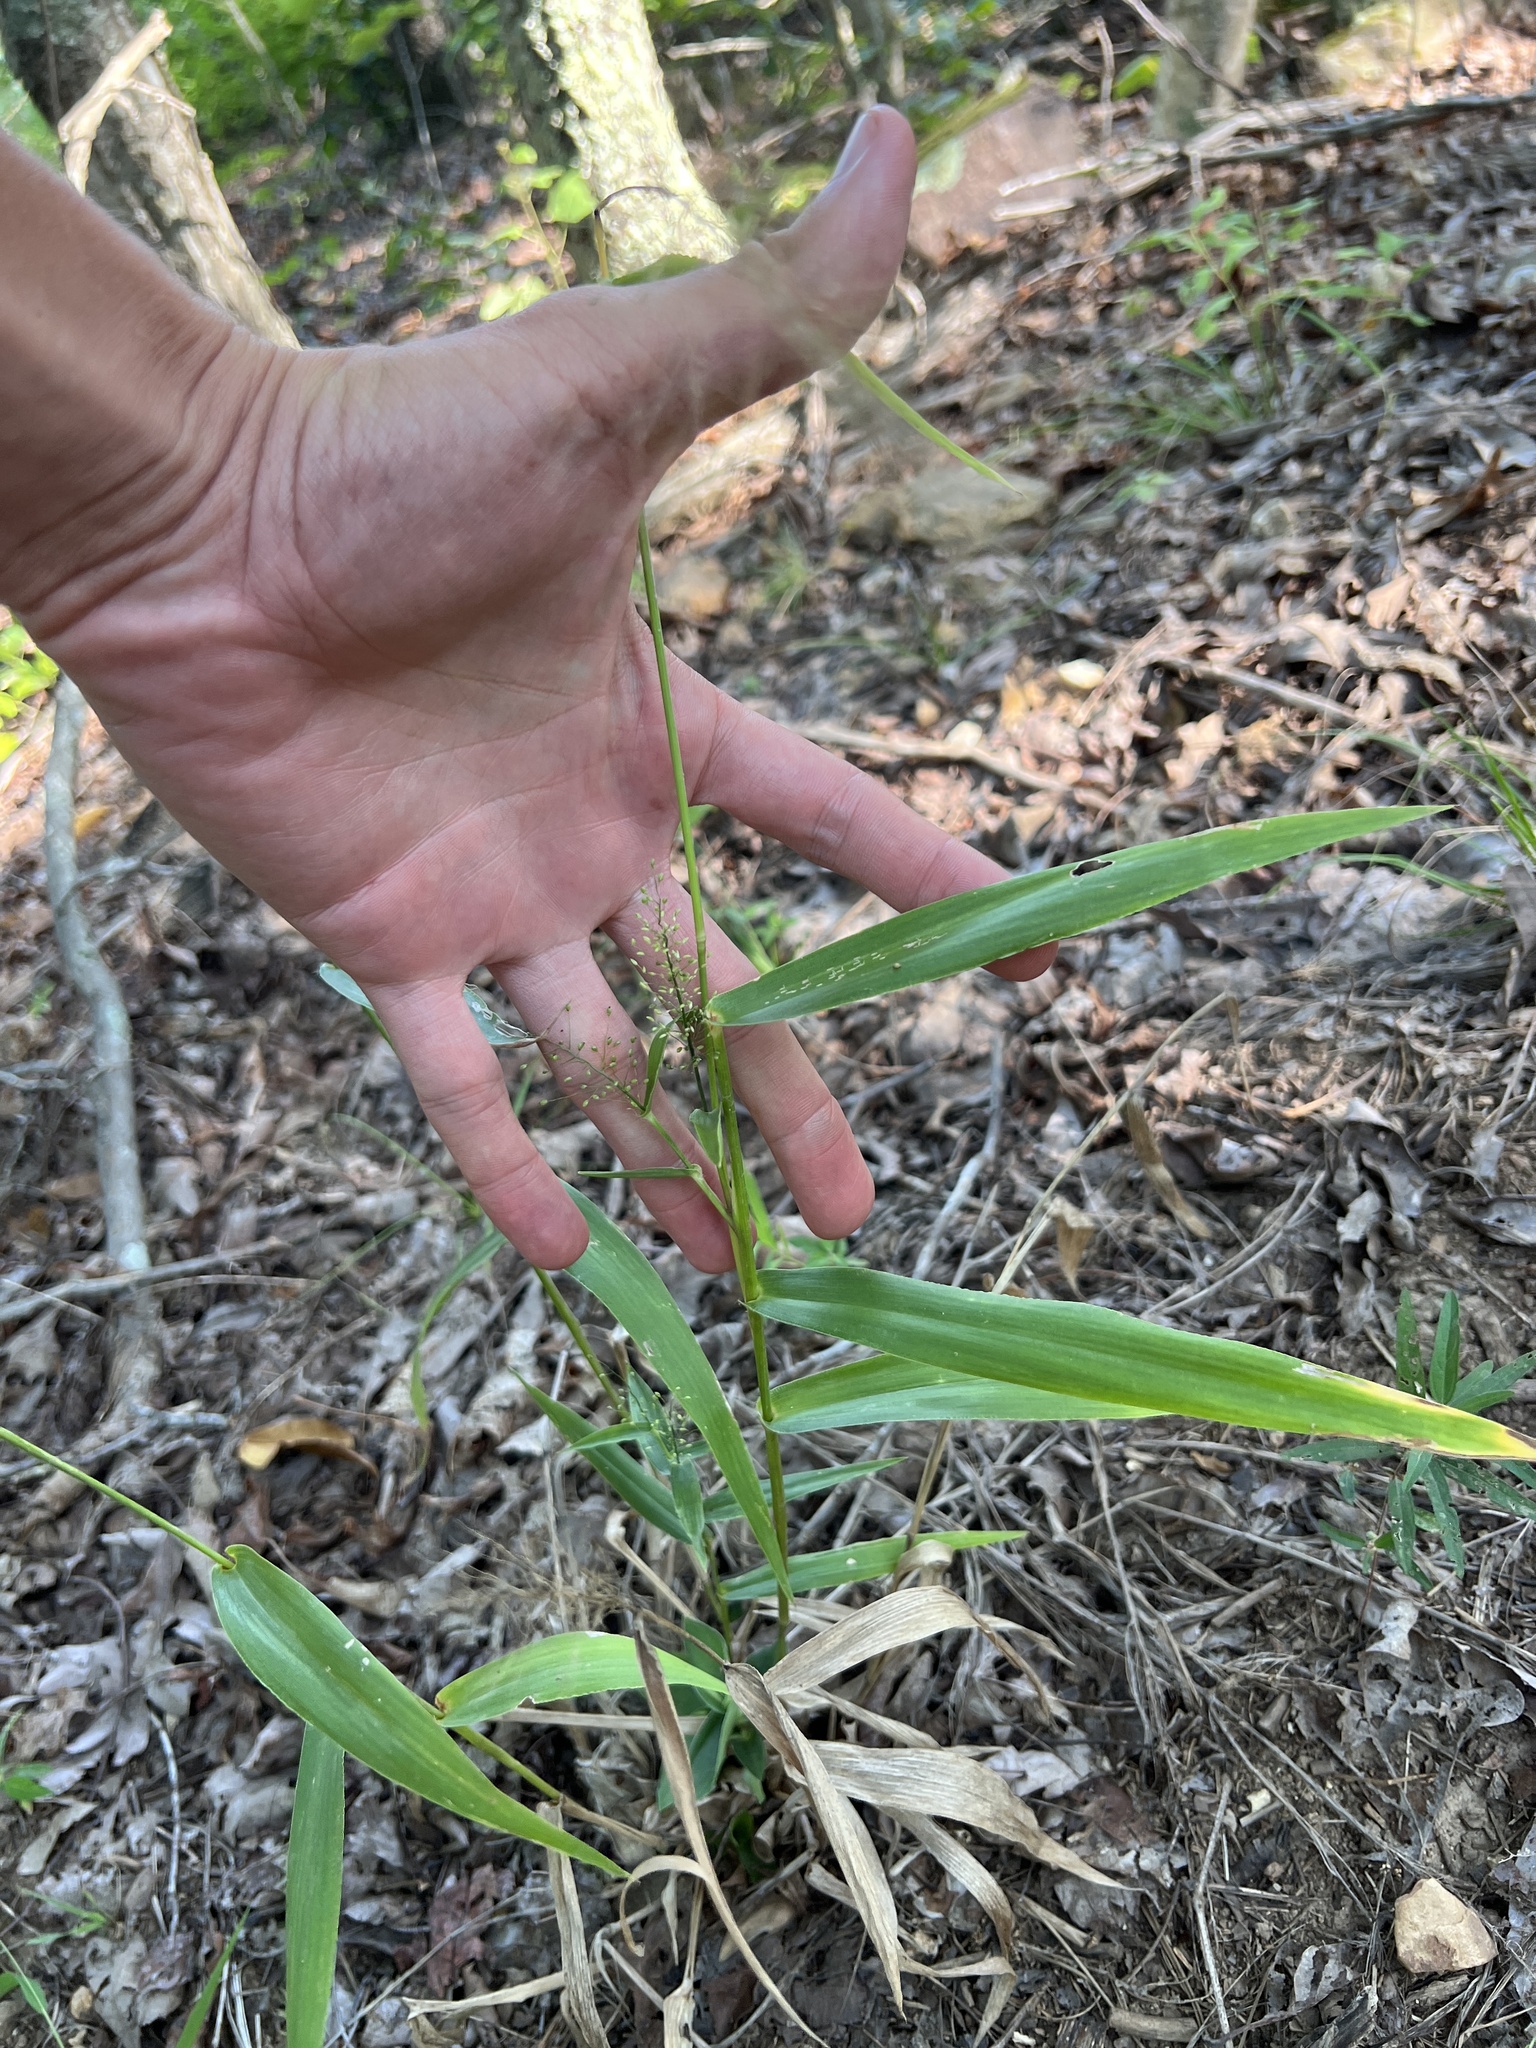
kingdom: Plantae
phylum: Tracheophyta
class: Liliopsida
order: Poales
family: Poaceae
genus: Dichanthelium
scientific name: Dichanthelium polyanthes
